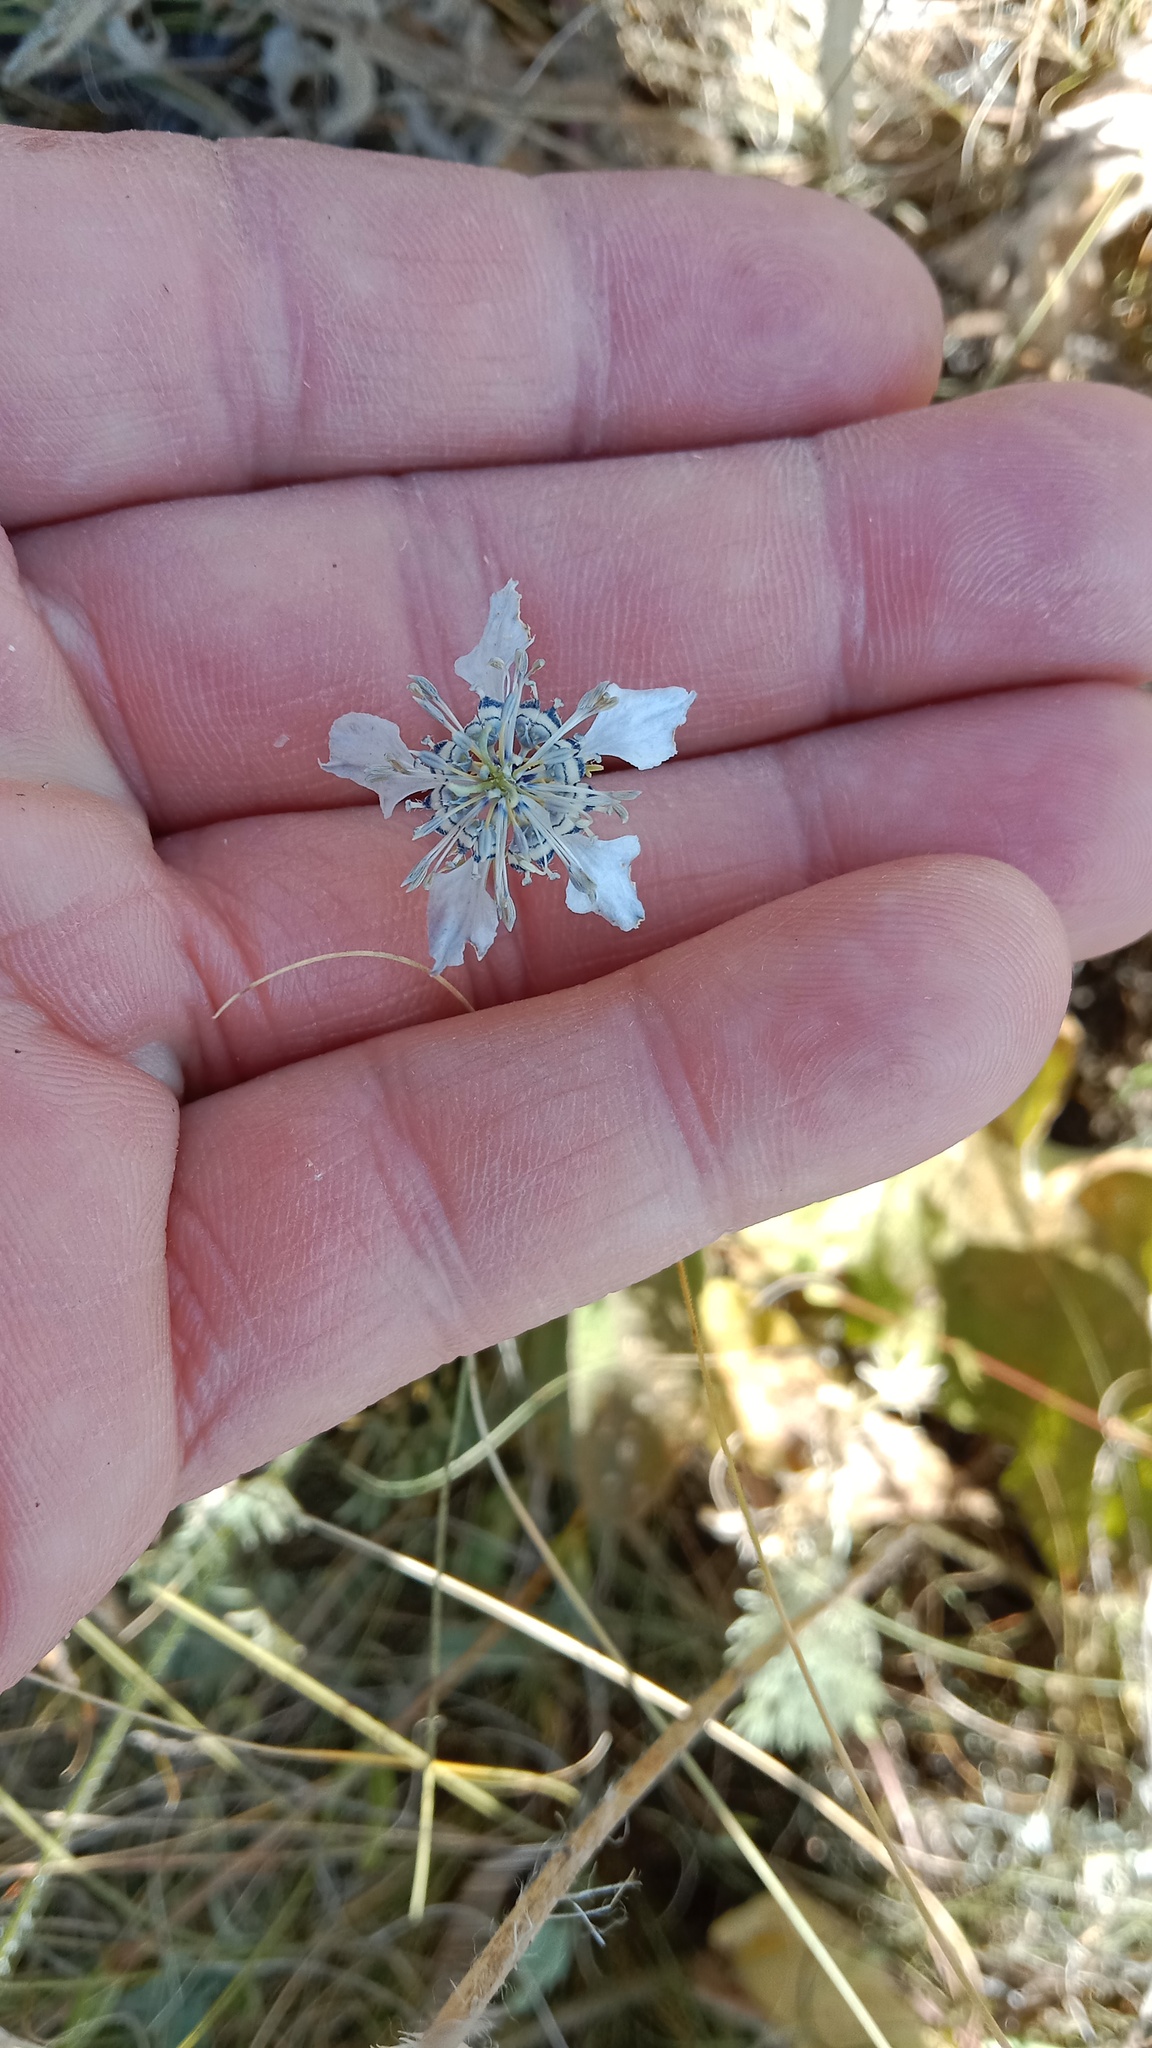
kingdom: Plantae
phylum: Tracheophyta
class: Magnoliopsida
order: Ranunculales
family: Ranunculaceae
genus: Nigella
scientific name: Nigella arvensis
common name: Wild fennel-flower
